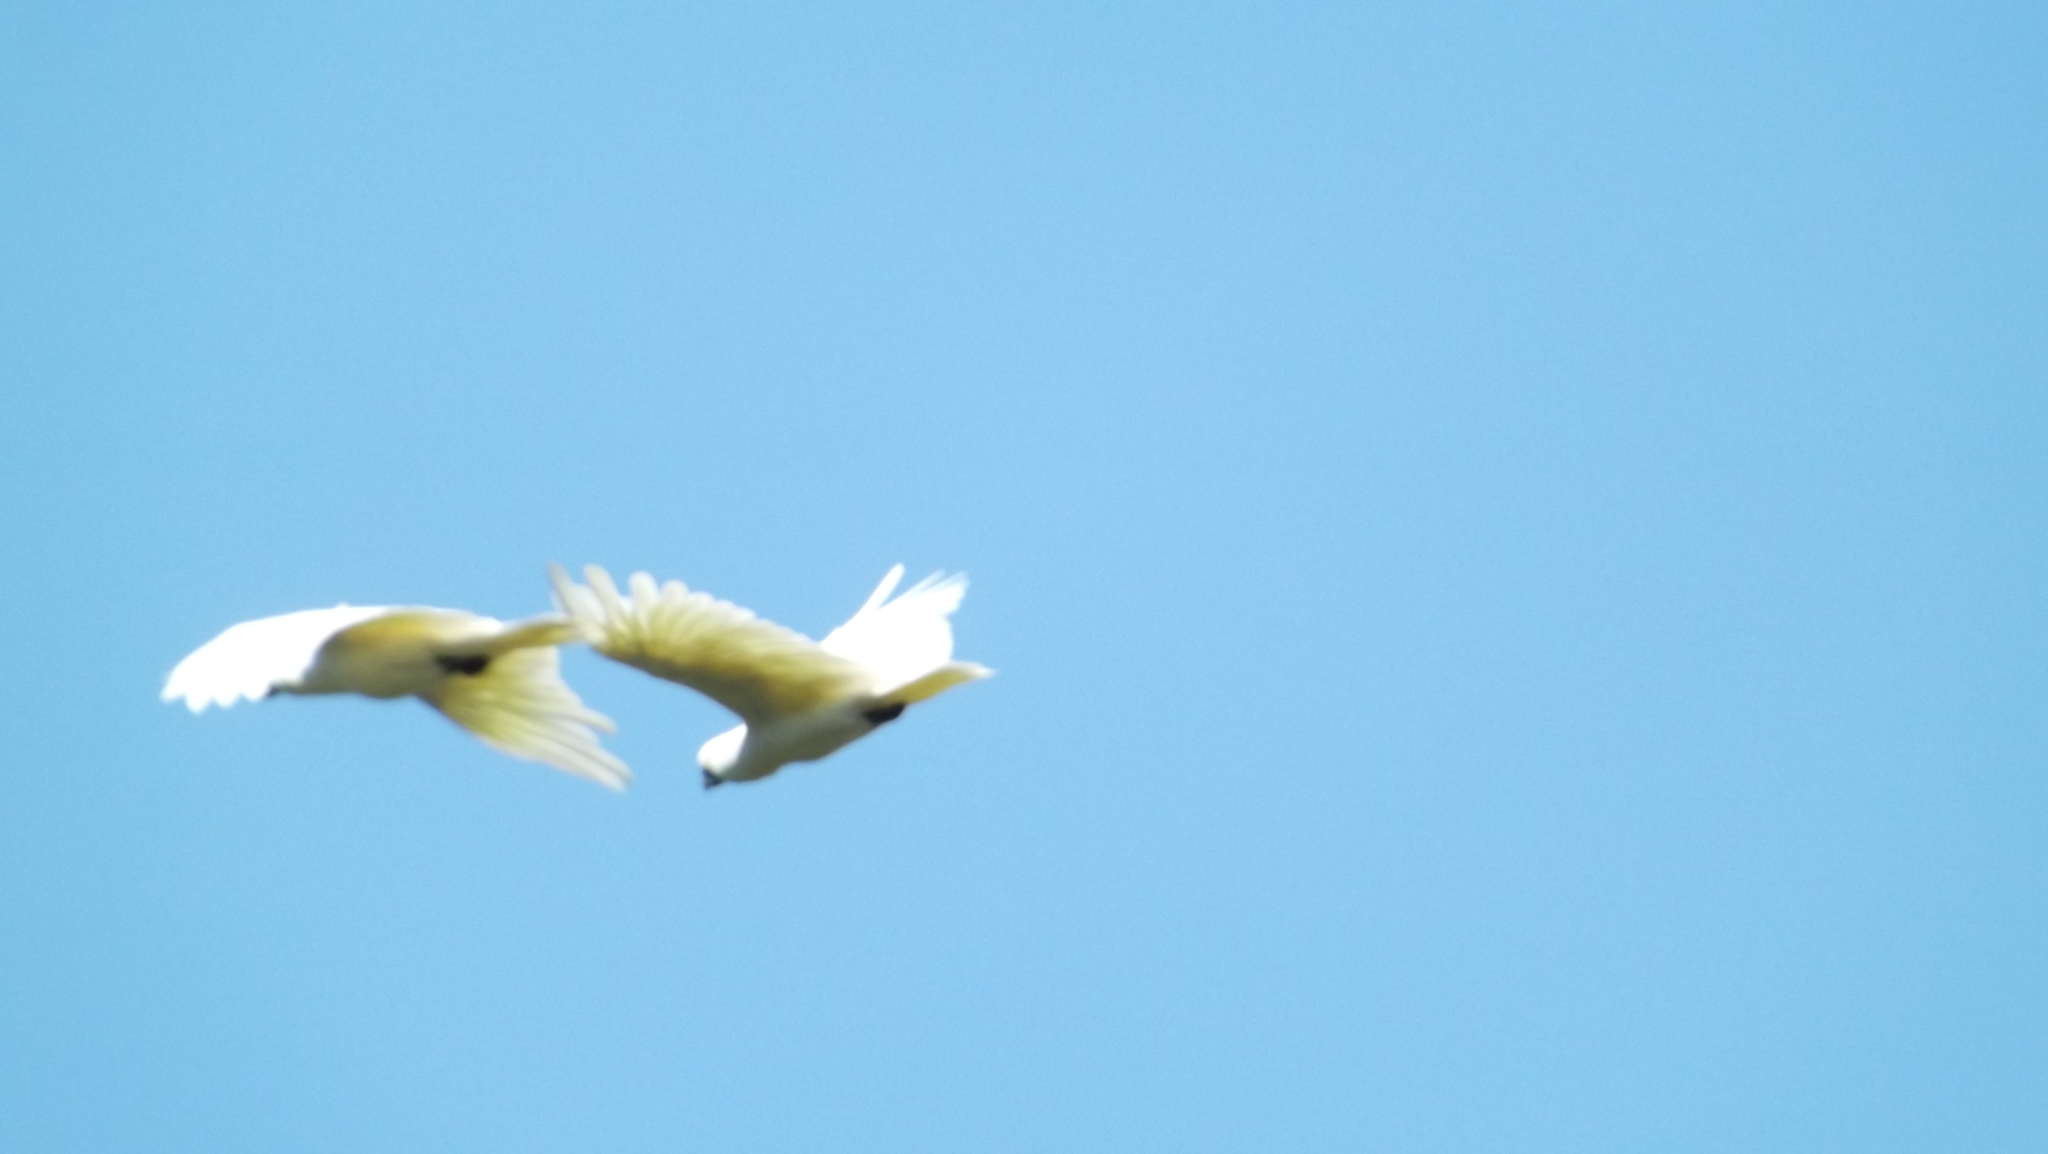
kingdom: Animalia
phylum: Chordata
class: Aves
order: Psittaciformes
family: Psittacidae
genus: Cacatua
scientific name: Cacatua galerita
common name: Sulphur-crested cockatoo
